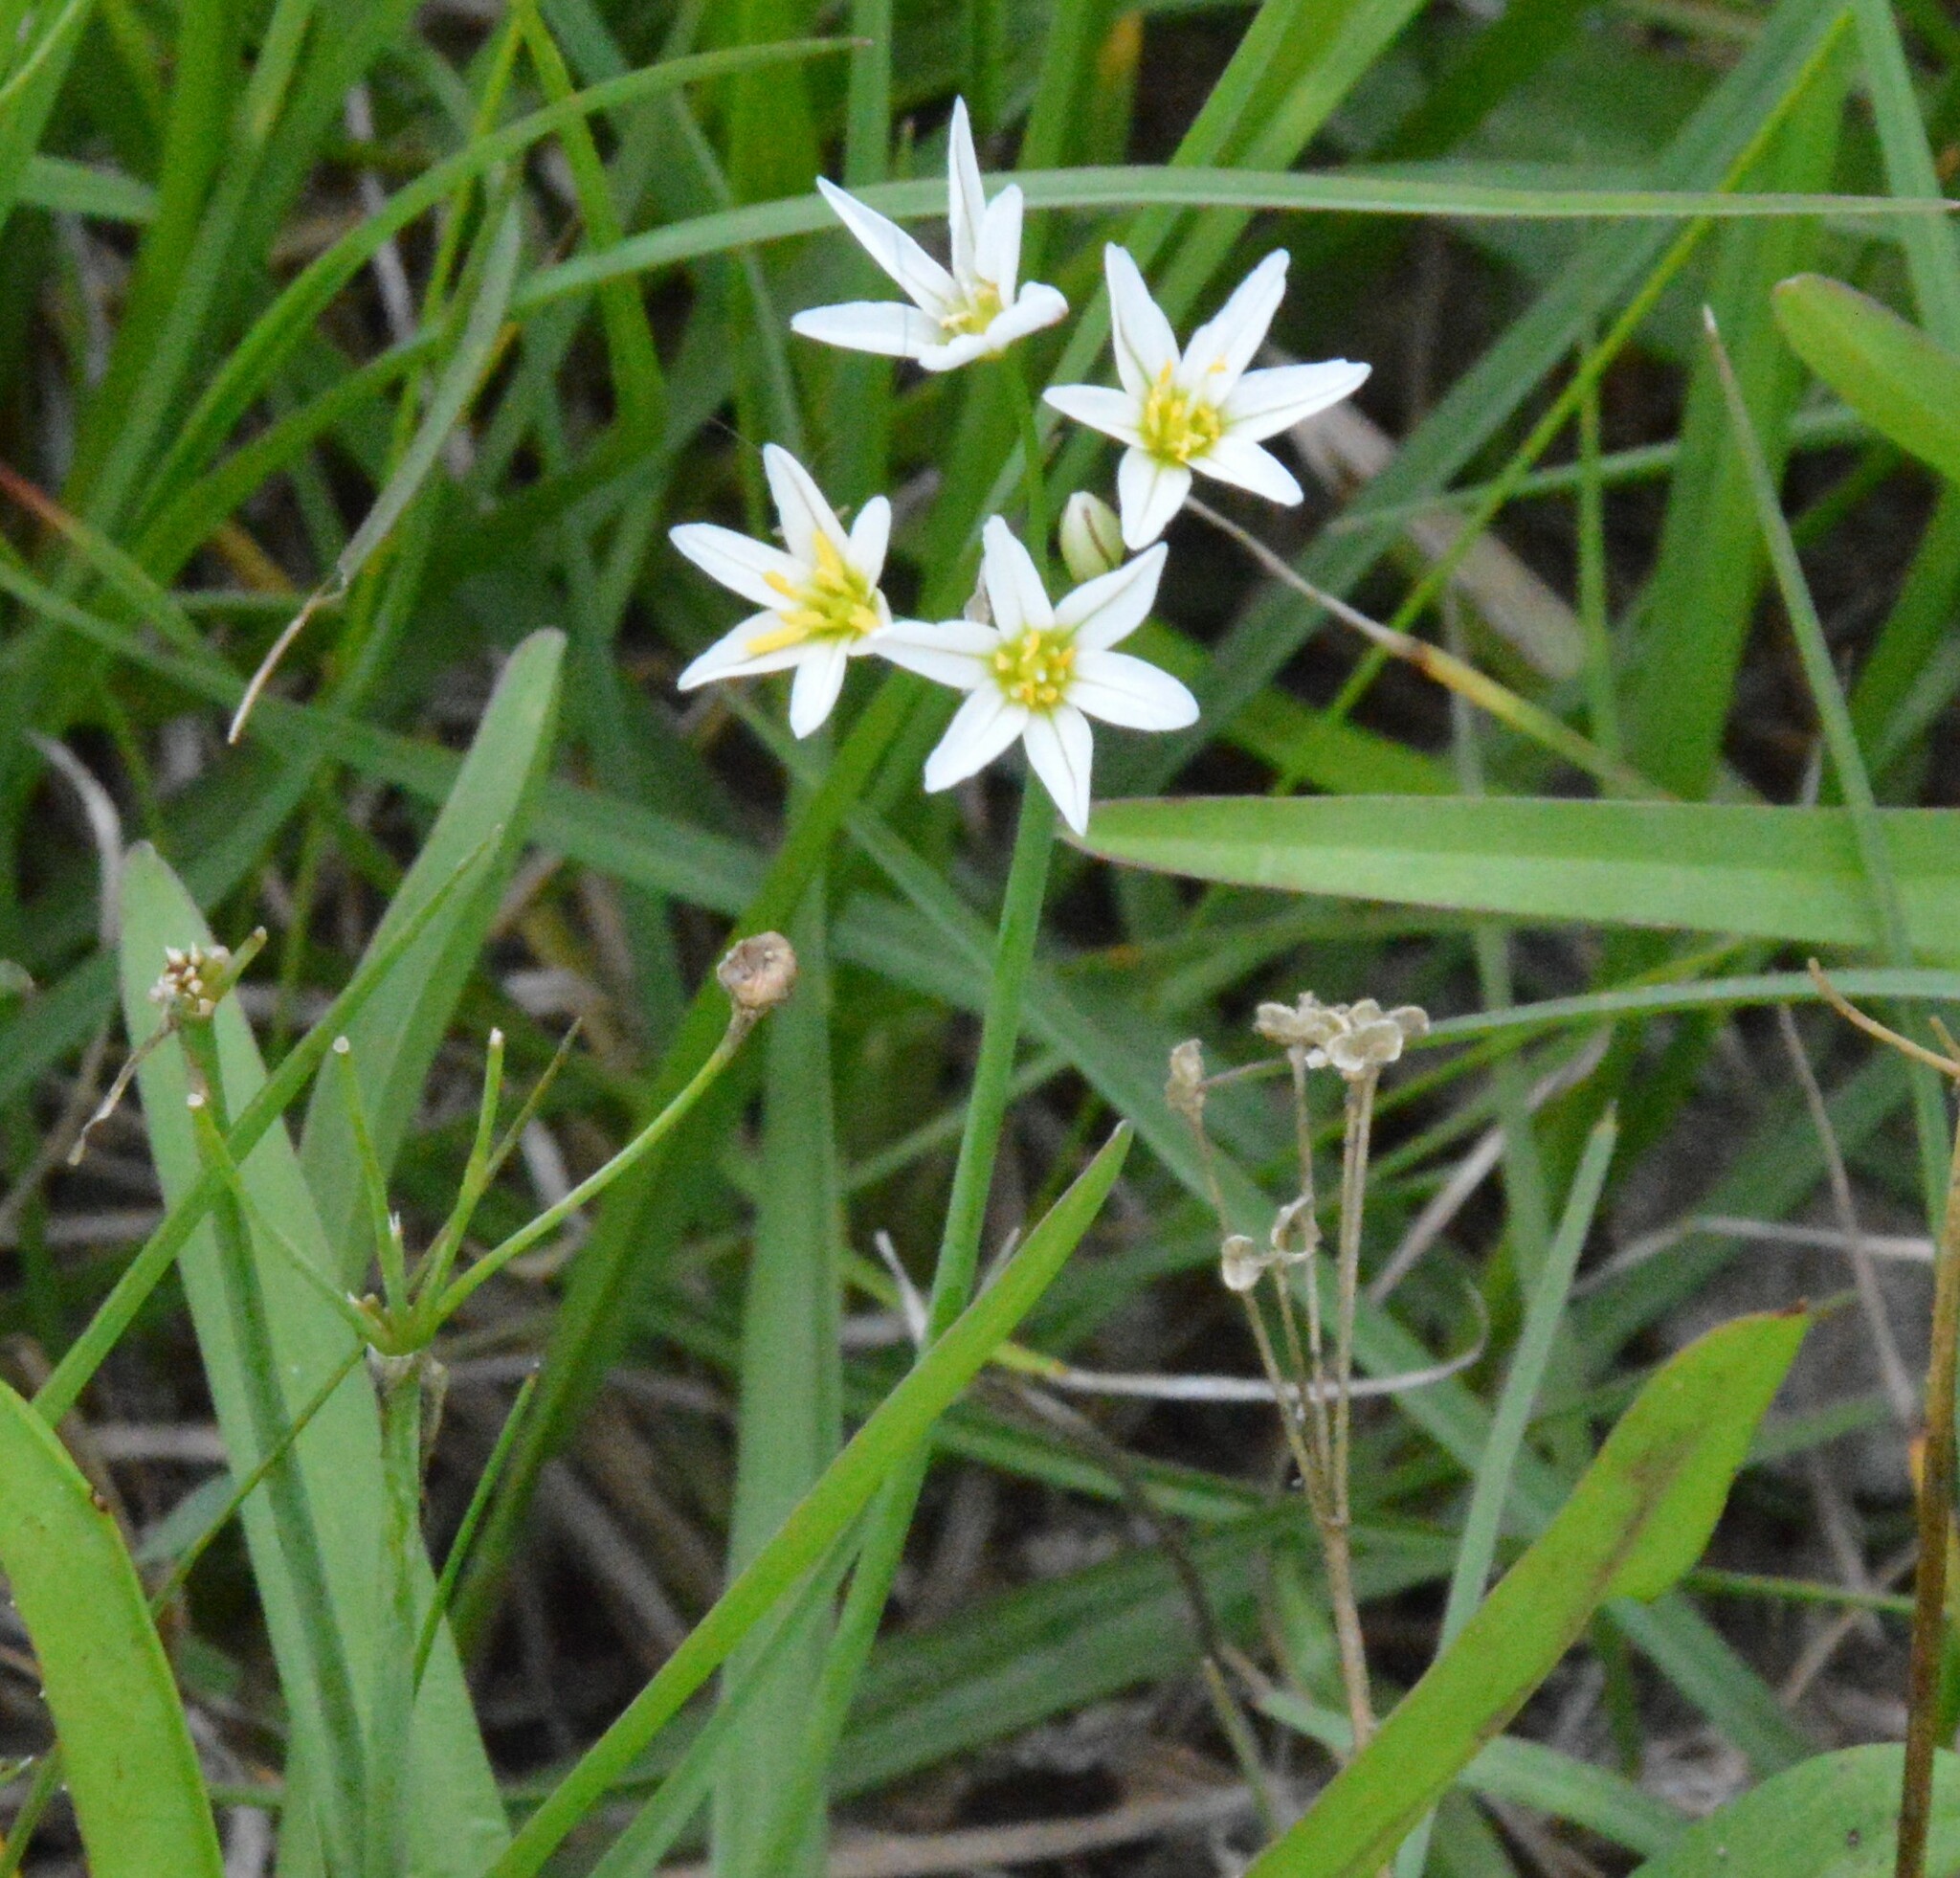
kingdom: Plantae
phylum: Tracheophyta
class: Liliopsida
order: Asparagales
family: Amaryllidaceae
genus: Nothoscordum
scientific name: Nothoscordum bivalve
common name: Crow-poison
